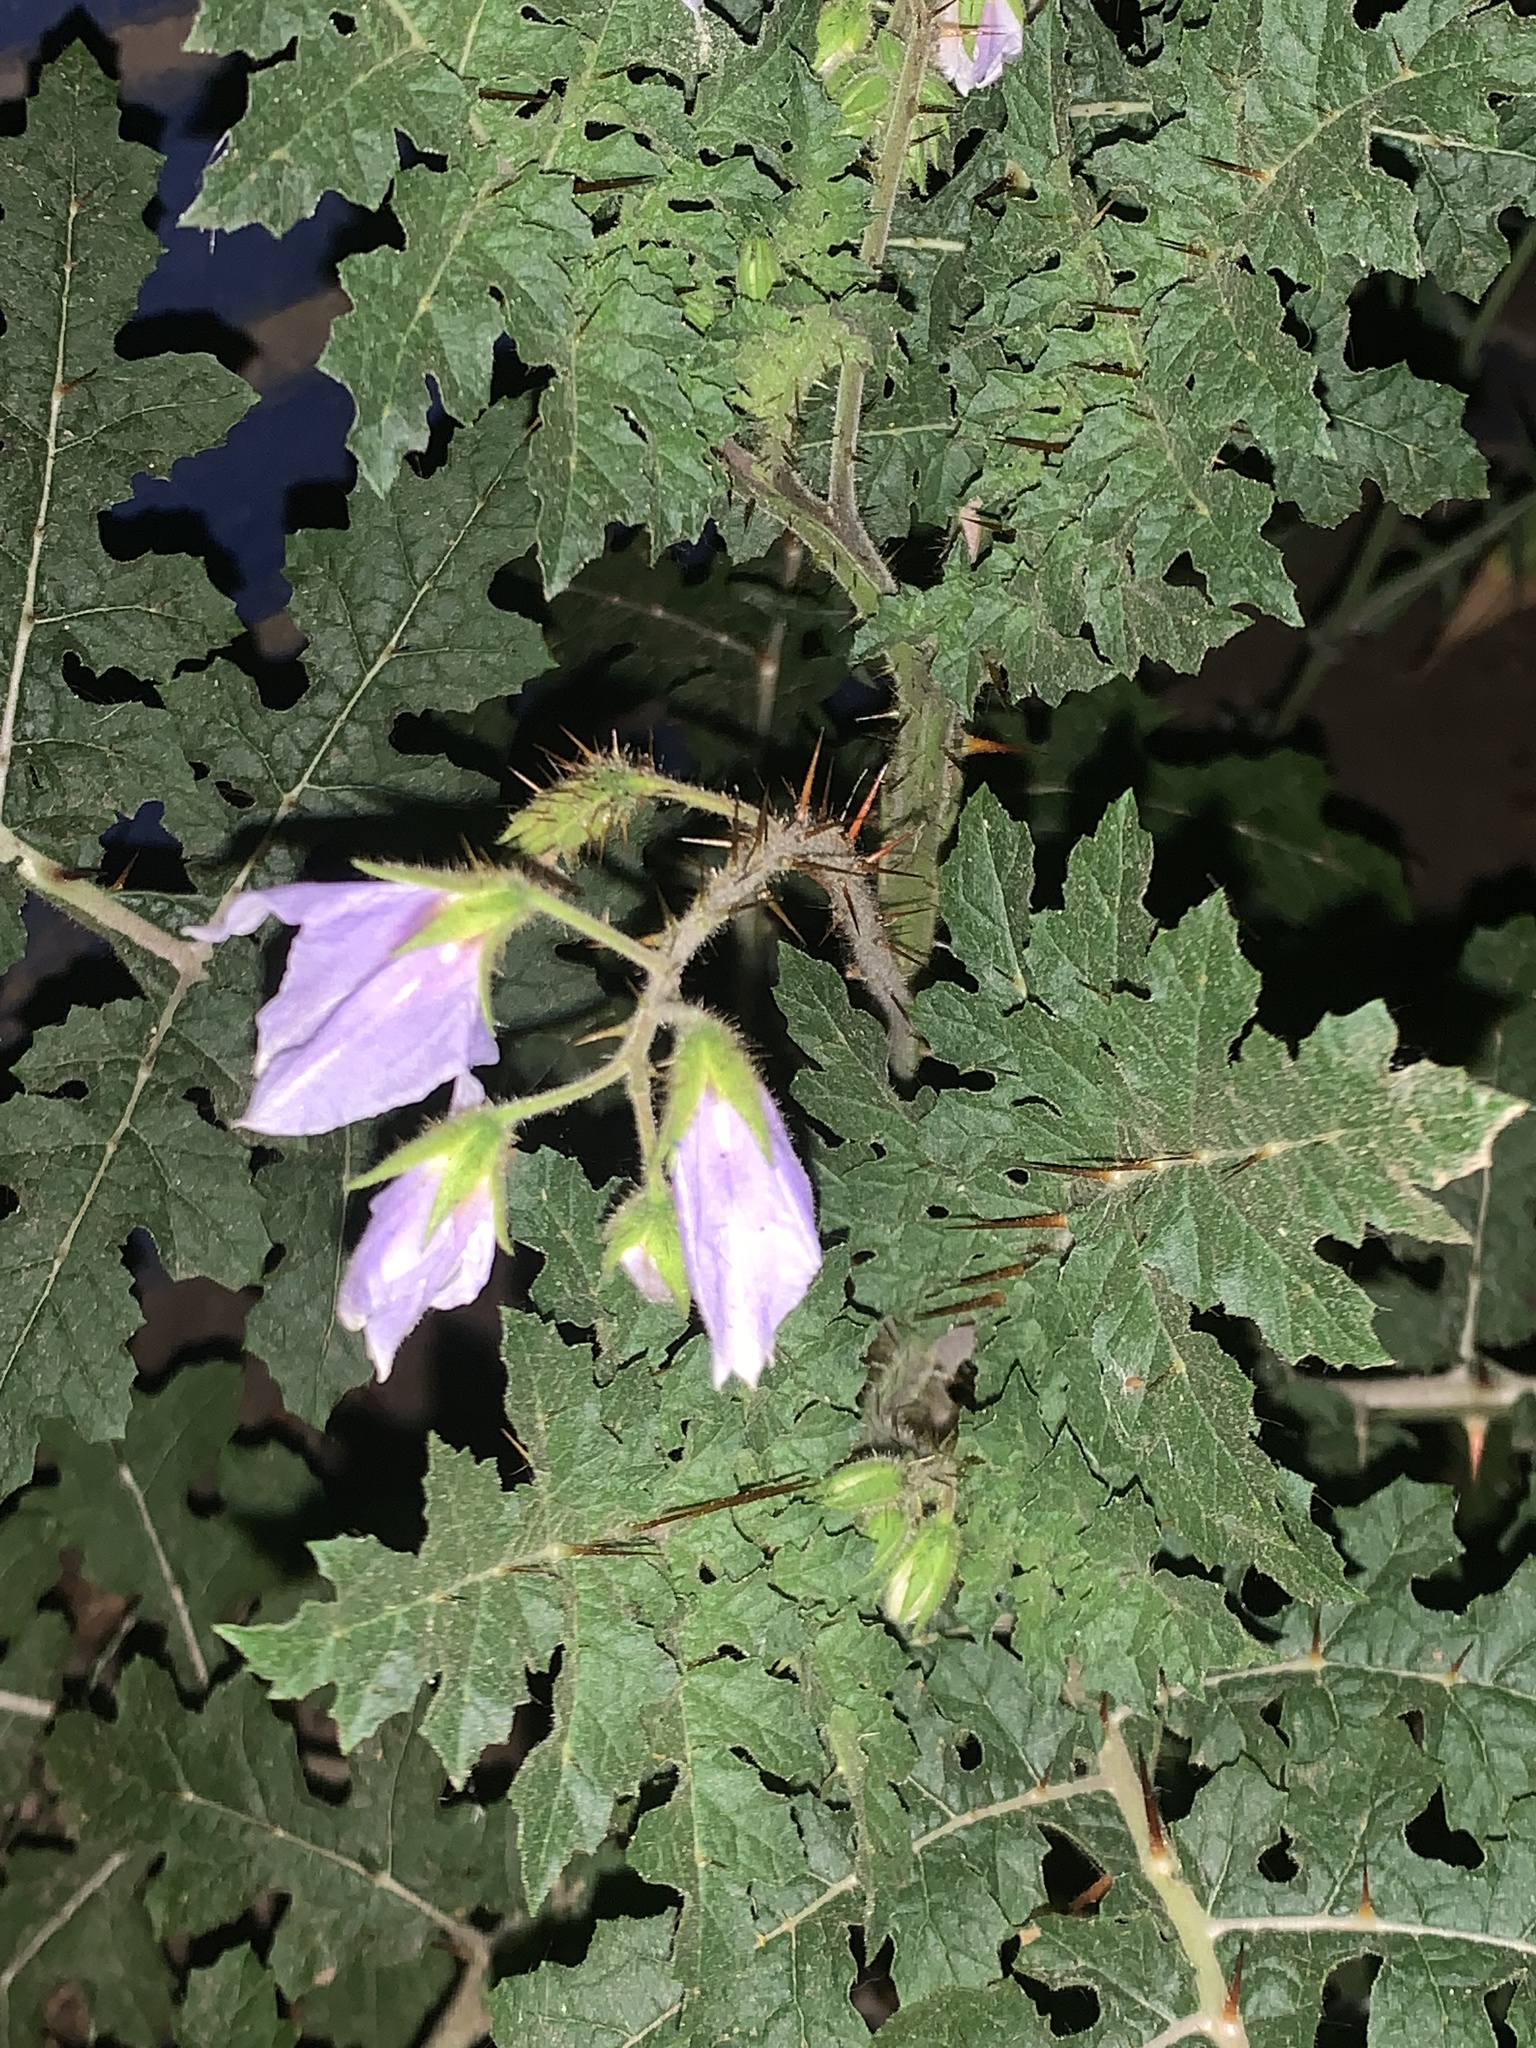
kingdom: Plantae
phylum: Tracheophyta
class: Magnoliopsida
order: Solanales
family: Solanaceae
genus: Solanum
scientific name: Solanum sisymbriifolium
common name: Red buffalo-bur
